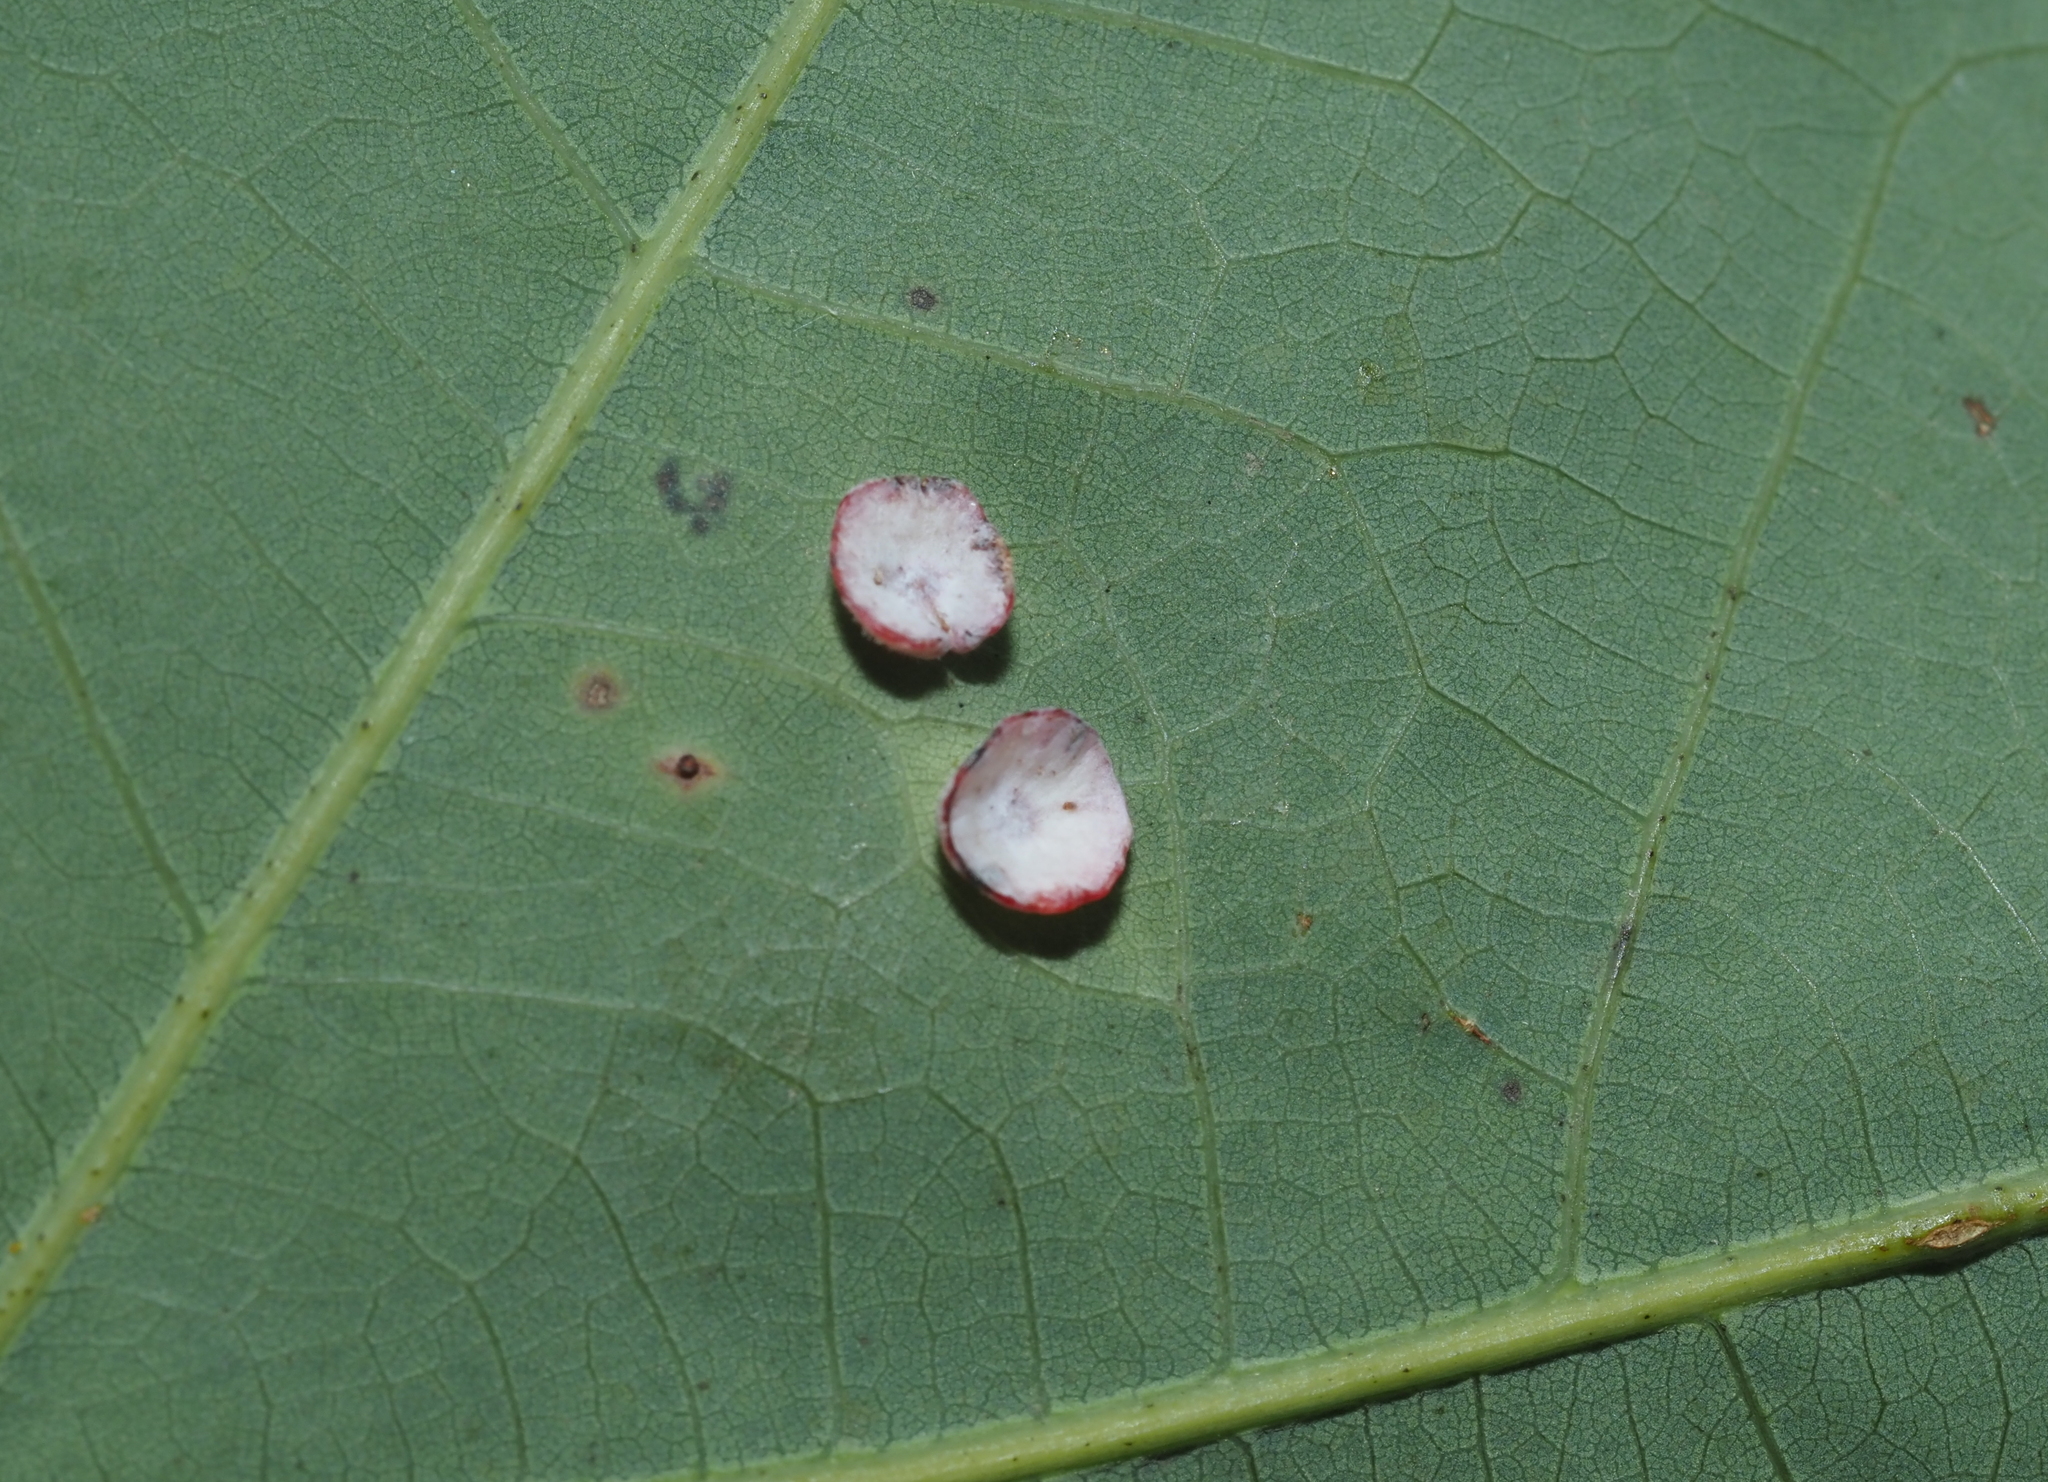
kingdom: Animalia
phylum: Arthropoda
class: Insecta
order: Hymenoptera
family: Cynipidae
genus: Phylloteras
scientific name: Phylloteras poculum
